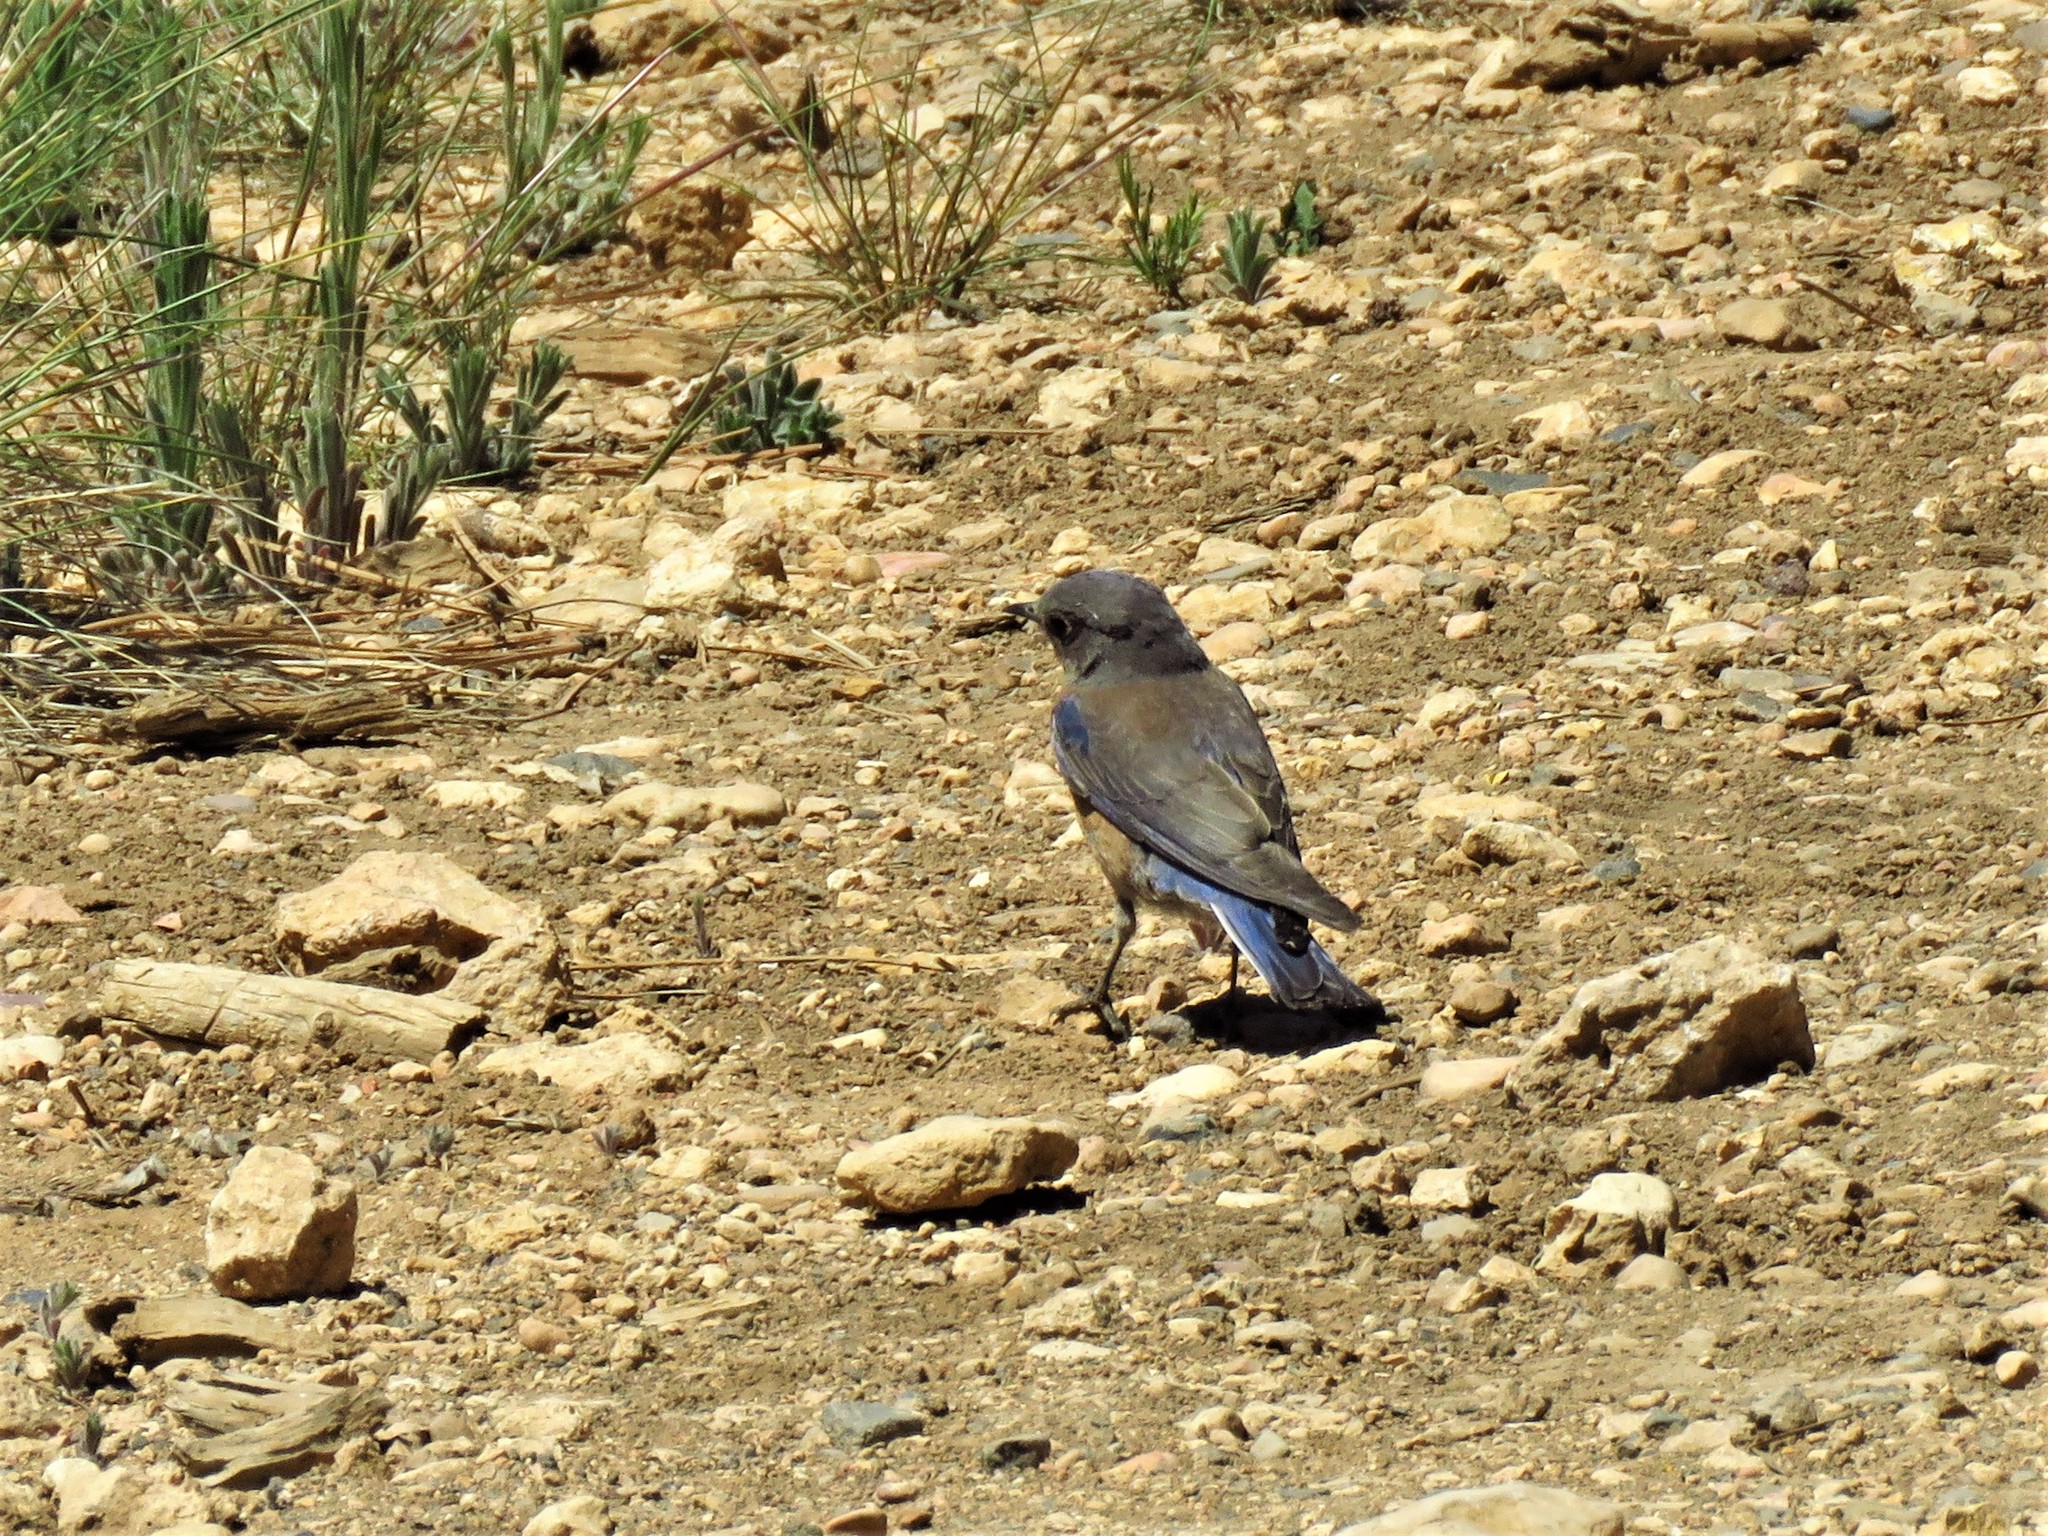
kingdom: Animalia
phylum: Chordata
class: Aves
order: Passeriformes
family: Turdidae
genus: Sialia
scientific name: Sialia mexicana
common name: Western bluebird
